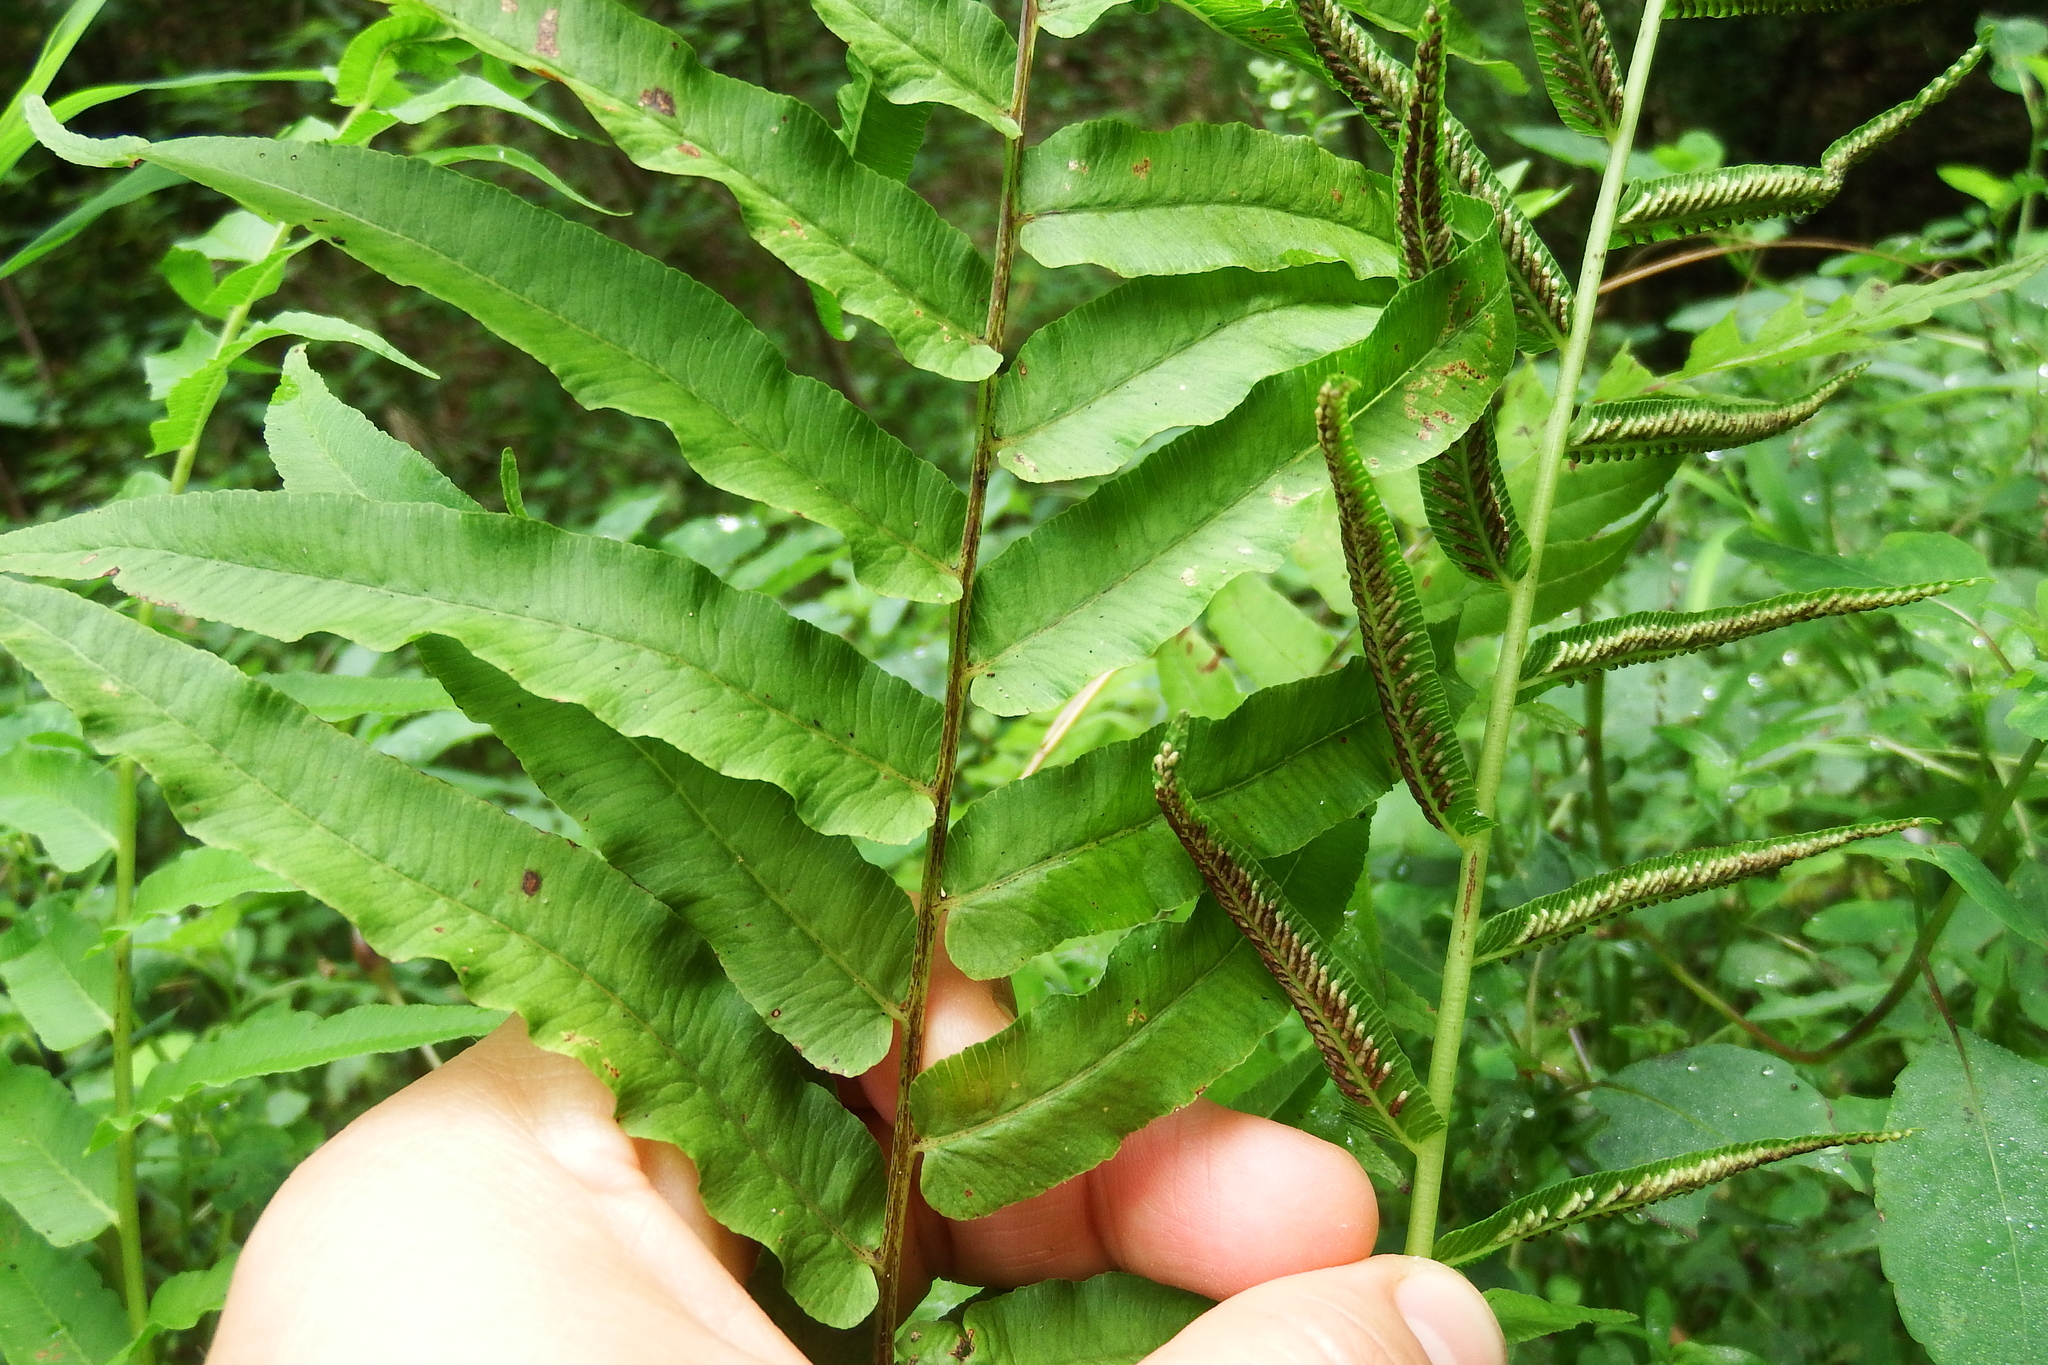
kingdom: Plantae
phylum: Tracheophyta
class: Polypodiopsida
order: Polypodiales
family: Diplaziopsidaceae
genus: Homalosorus
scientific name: Homalosorus pycnocarpos
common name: Glade fern
